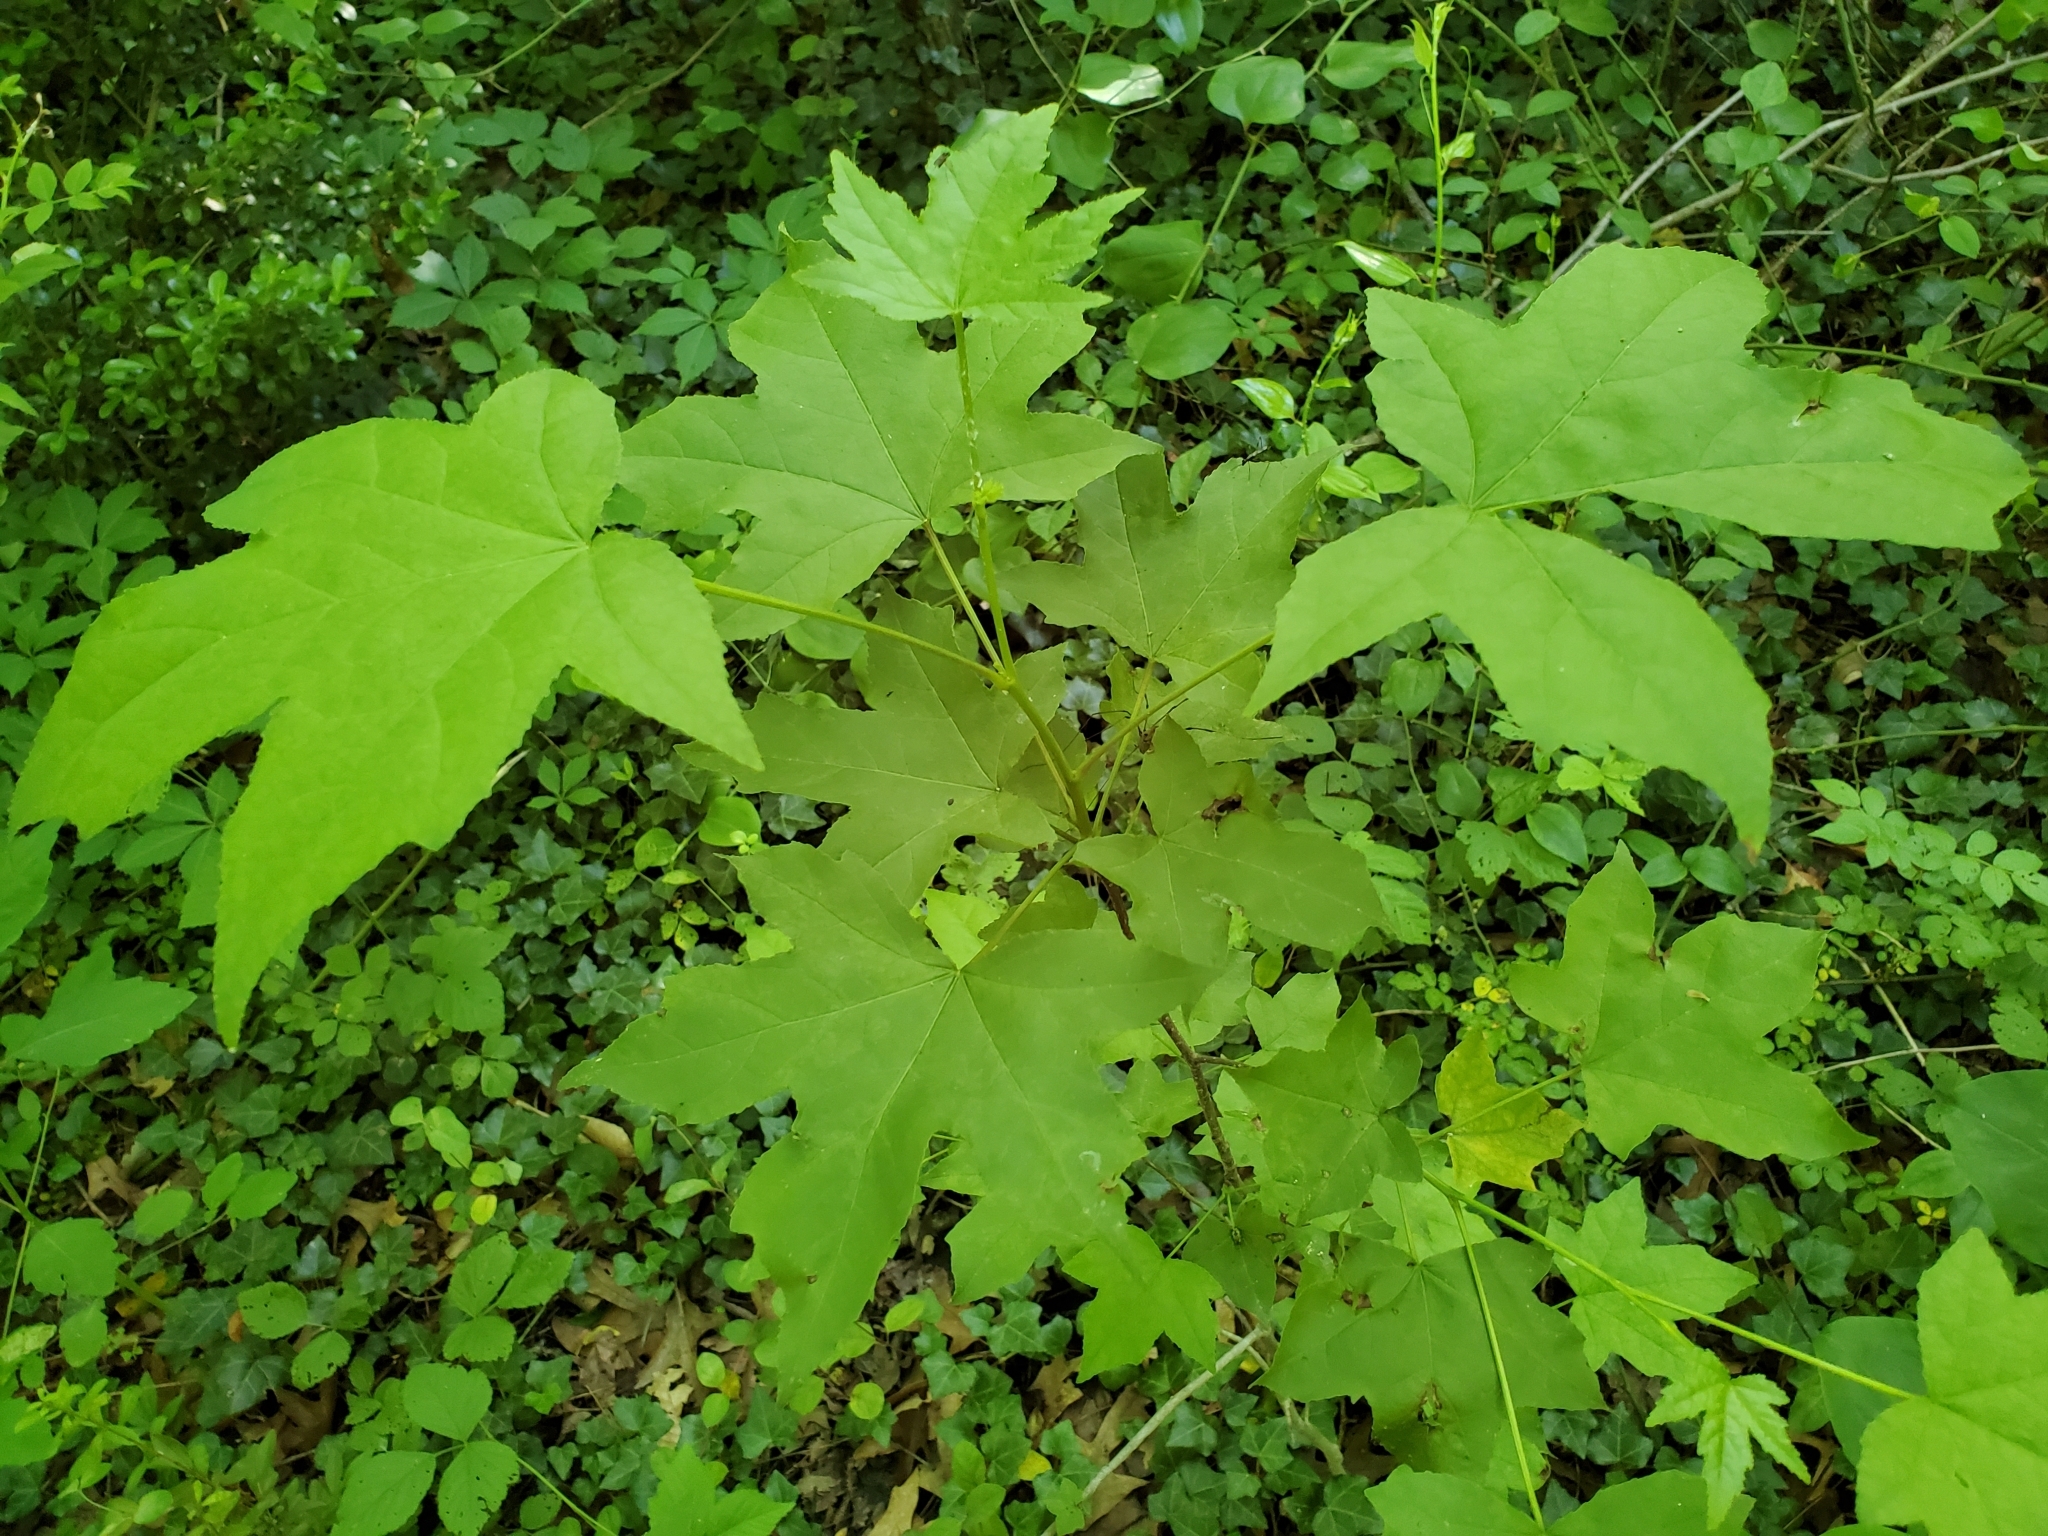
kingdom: Plantae
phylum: Tracheophyta
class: Magnoliopsida
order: Saxifragales
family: Altingiaceae
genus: Liquidambar
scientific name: Liquidambar styraciflua
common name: Sweet gum
